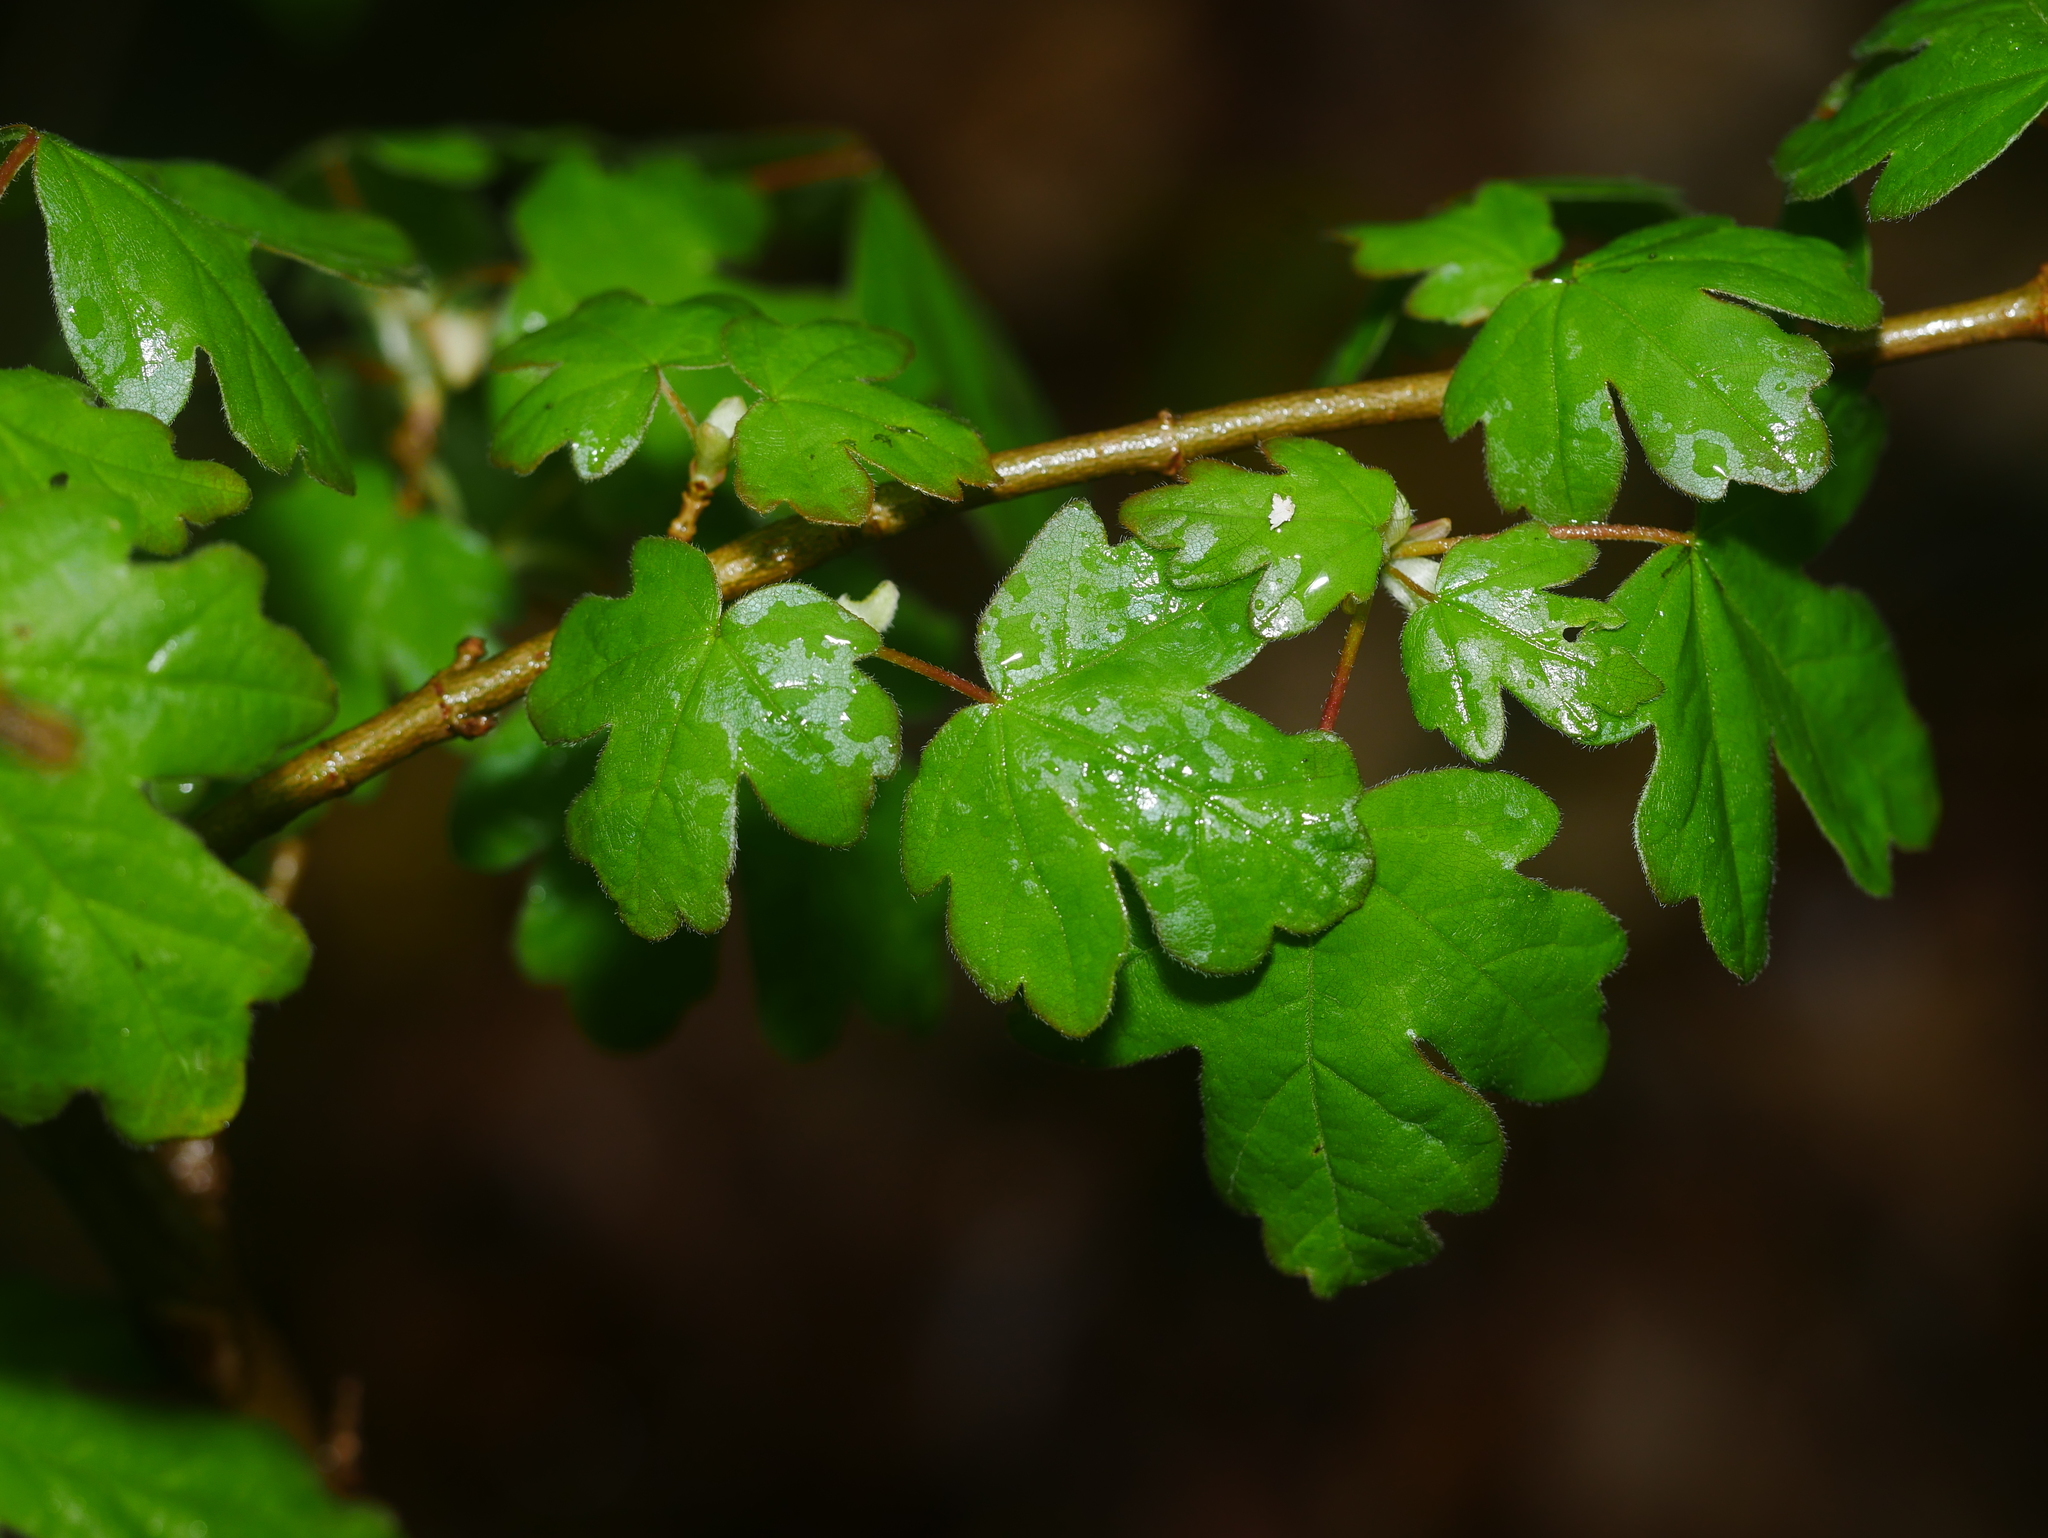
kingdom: Plantae
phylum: Tracheophyta
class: Magnoliopsida
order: Sapindales
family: Sapindaceae
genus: Acer
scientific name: Acer campestre
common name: Field maple
